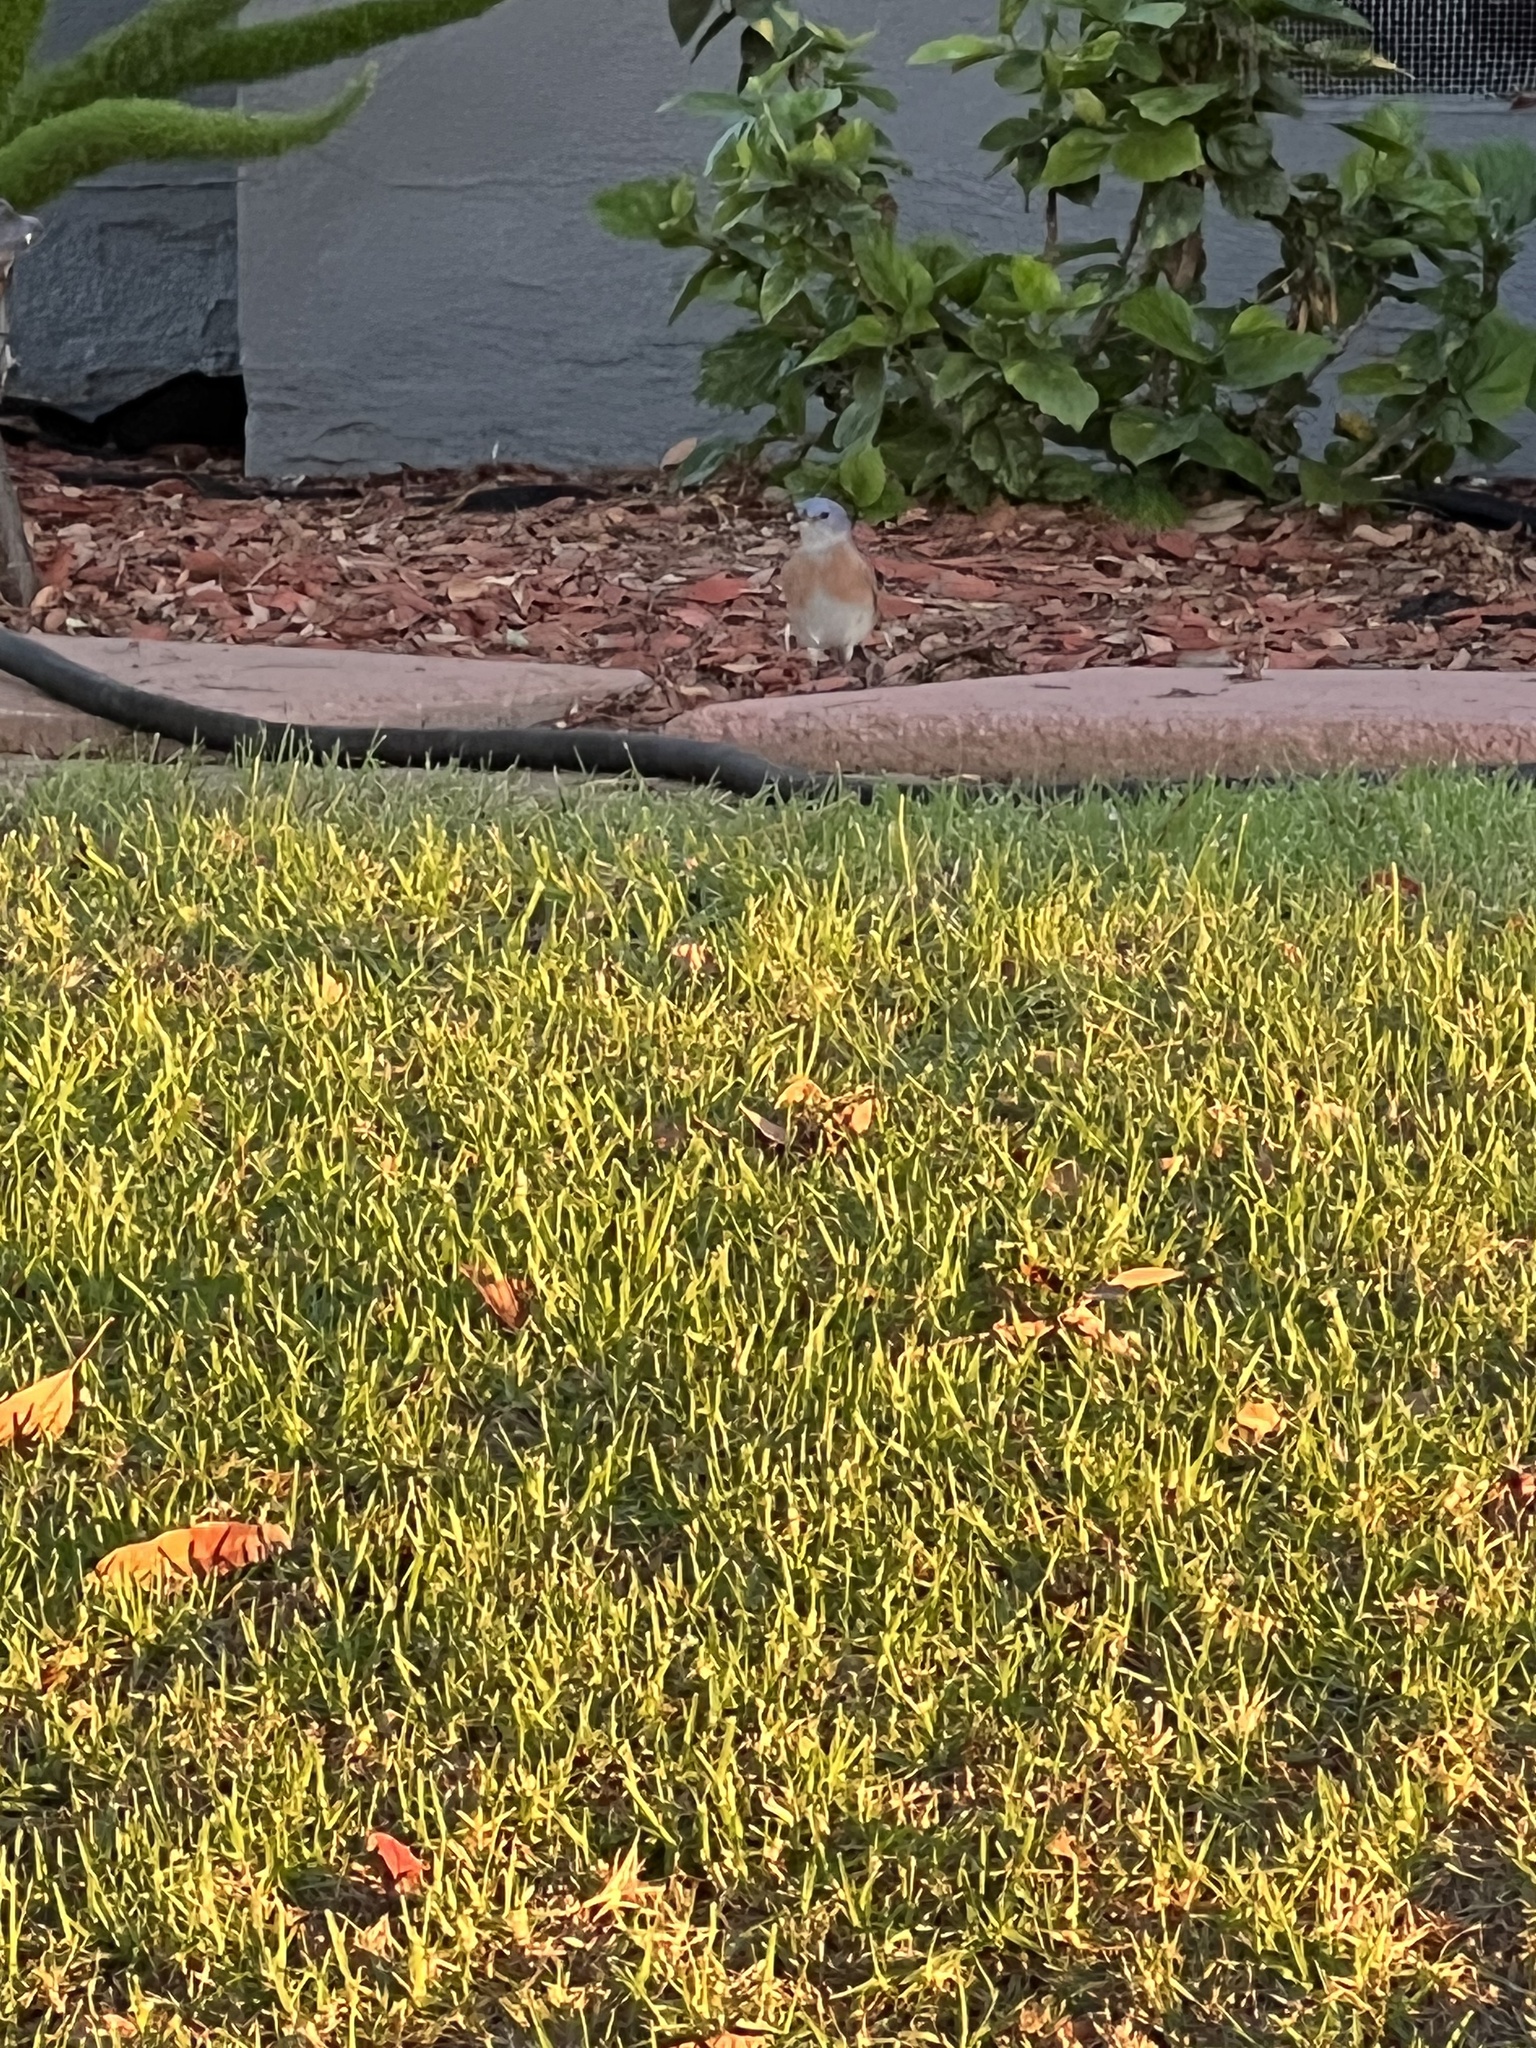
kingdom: Animalia
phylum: Chordata
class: Aves
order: Passeriformes
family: Turdidae
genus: Sialia
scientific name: Sialia mexicana
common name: Western bluebird
